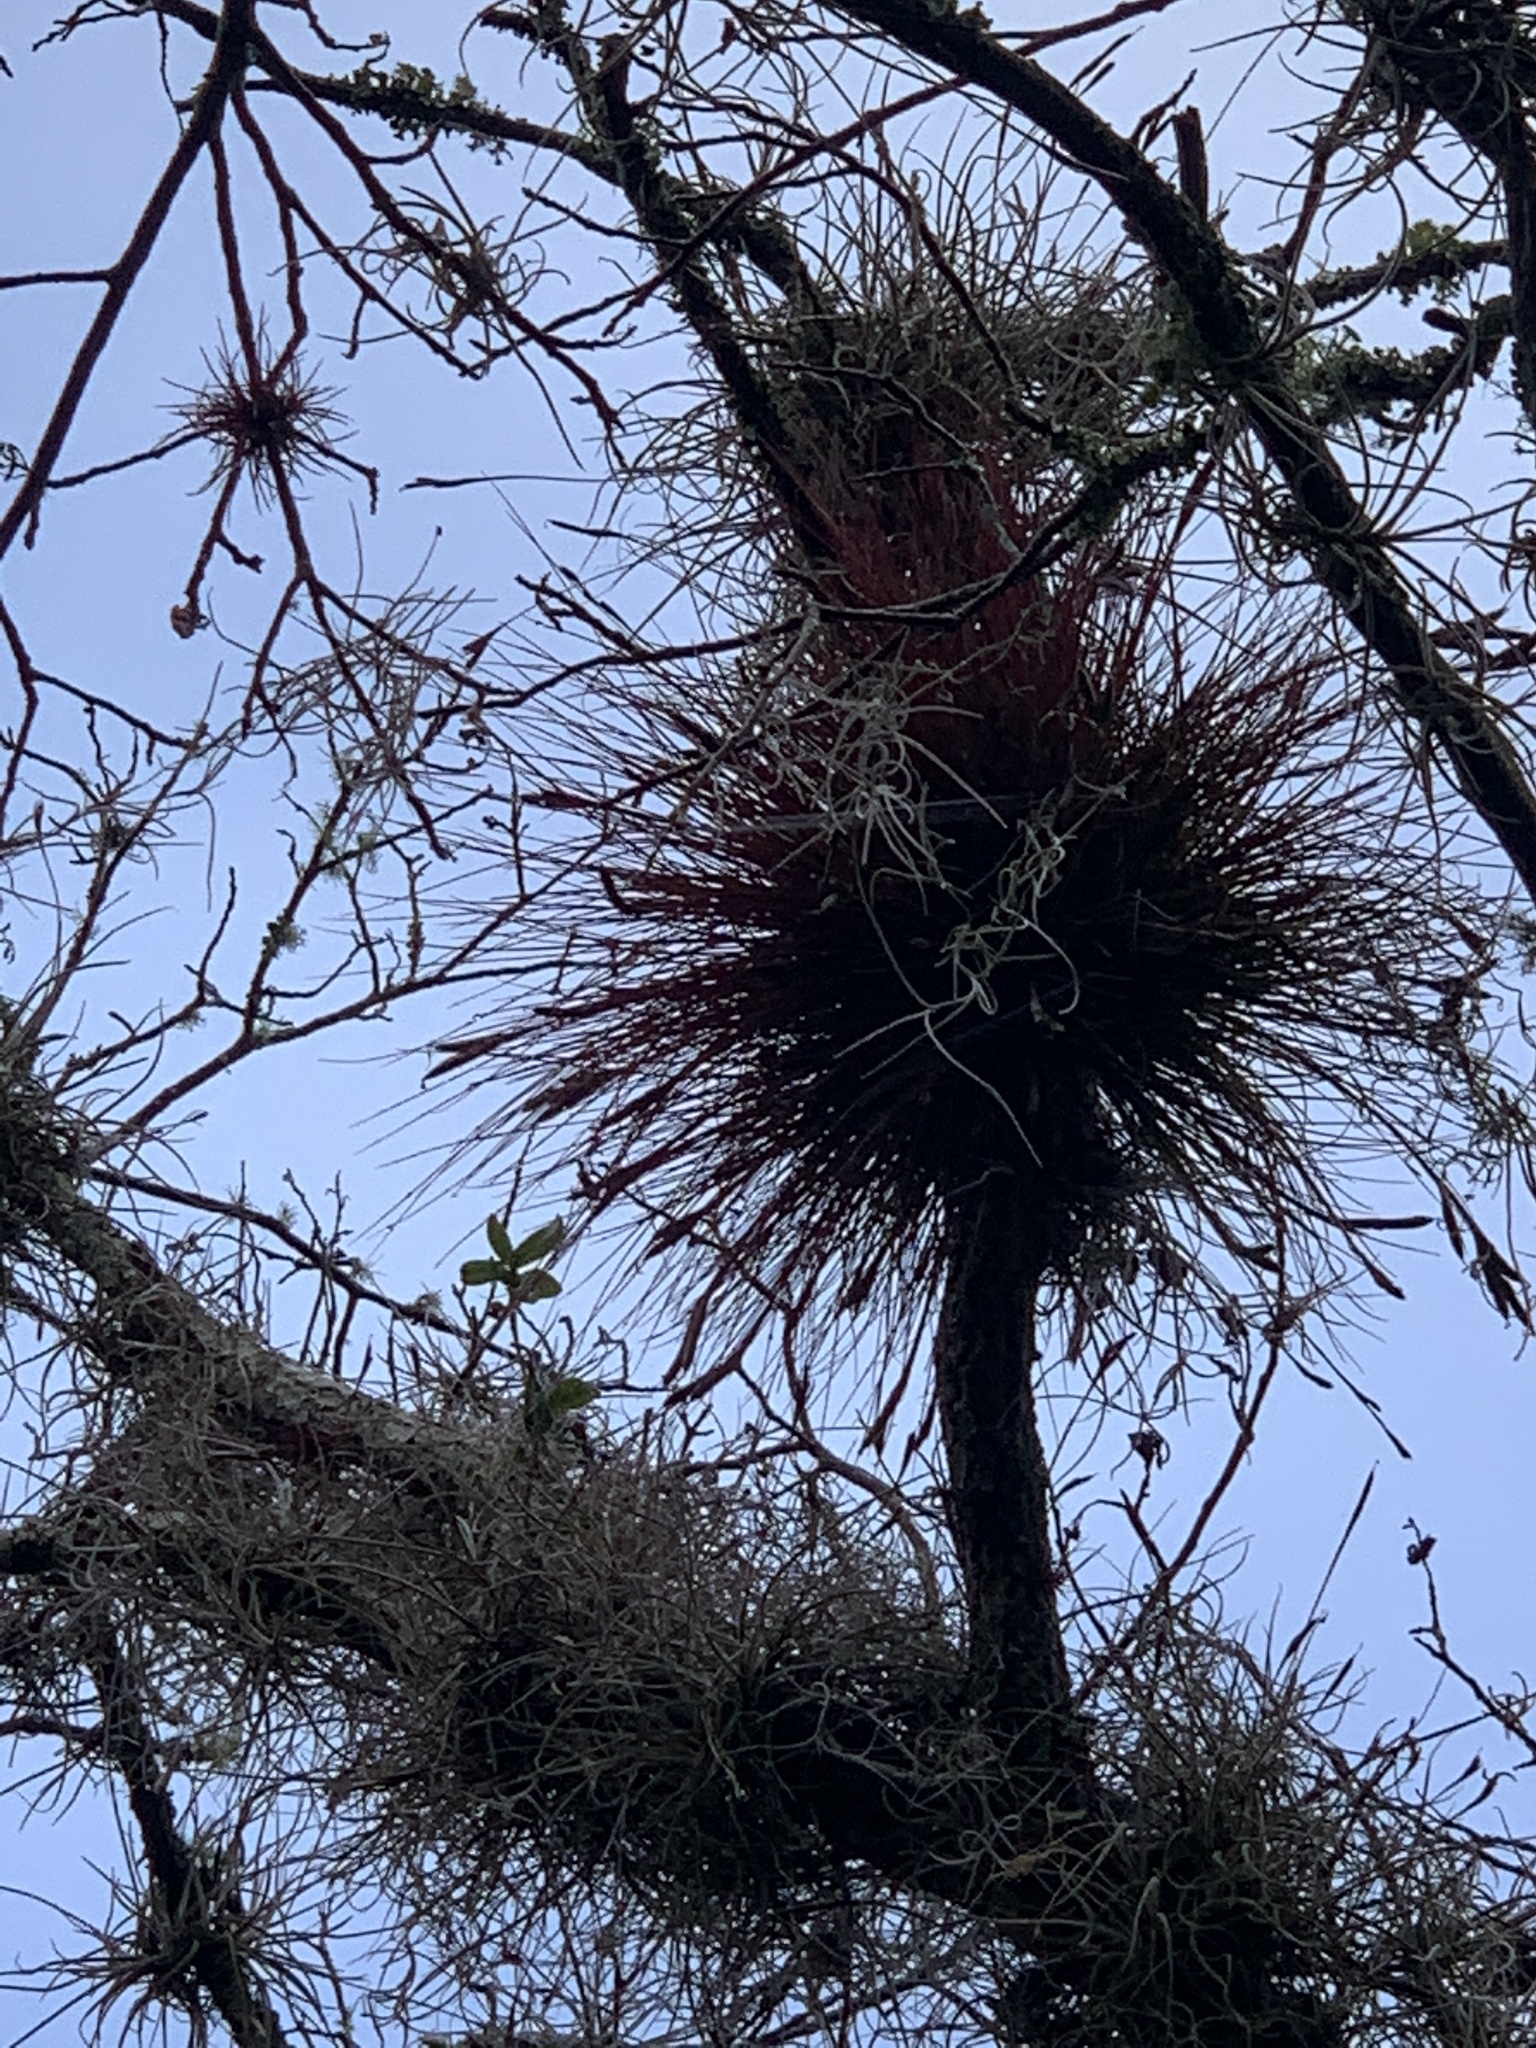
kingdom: Plantae
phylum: Tracheophyta
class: Liliopsida
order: Poales
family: Bromeliaceae
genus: Tillandsia
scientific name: Tillandsia setacea
